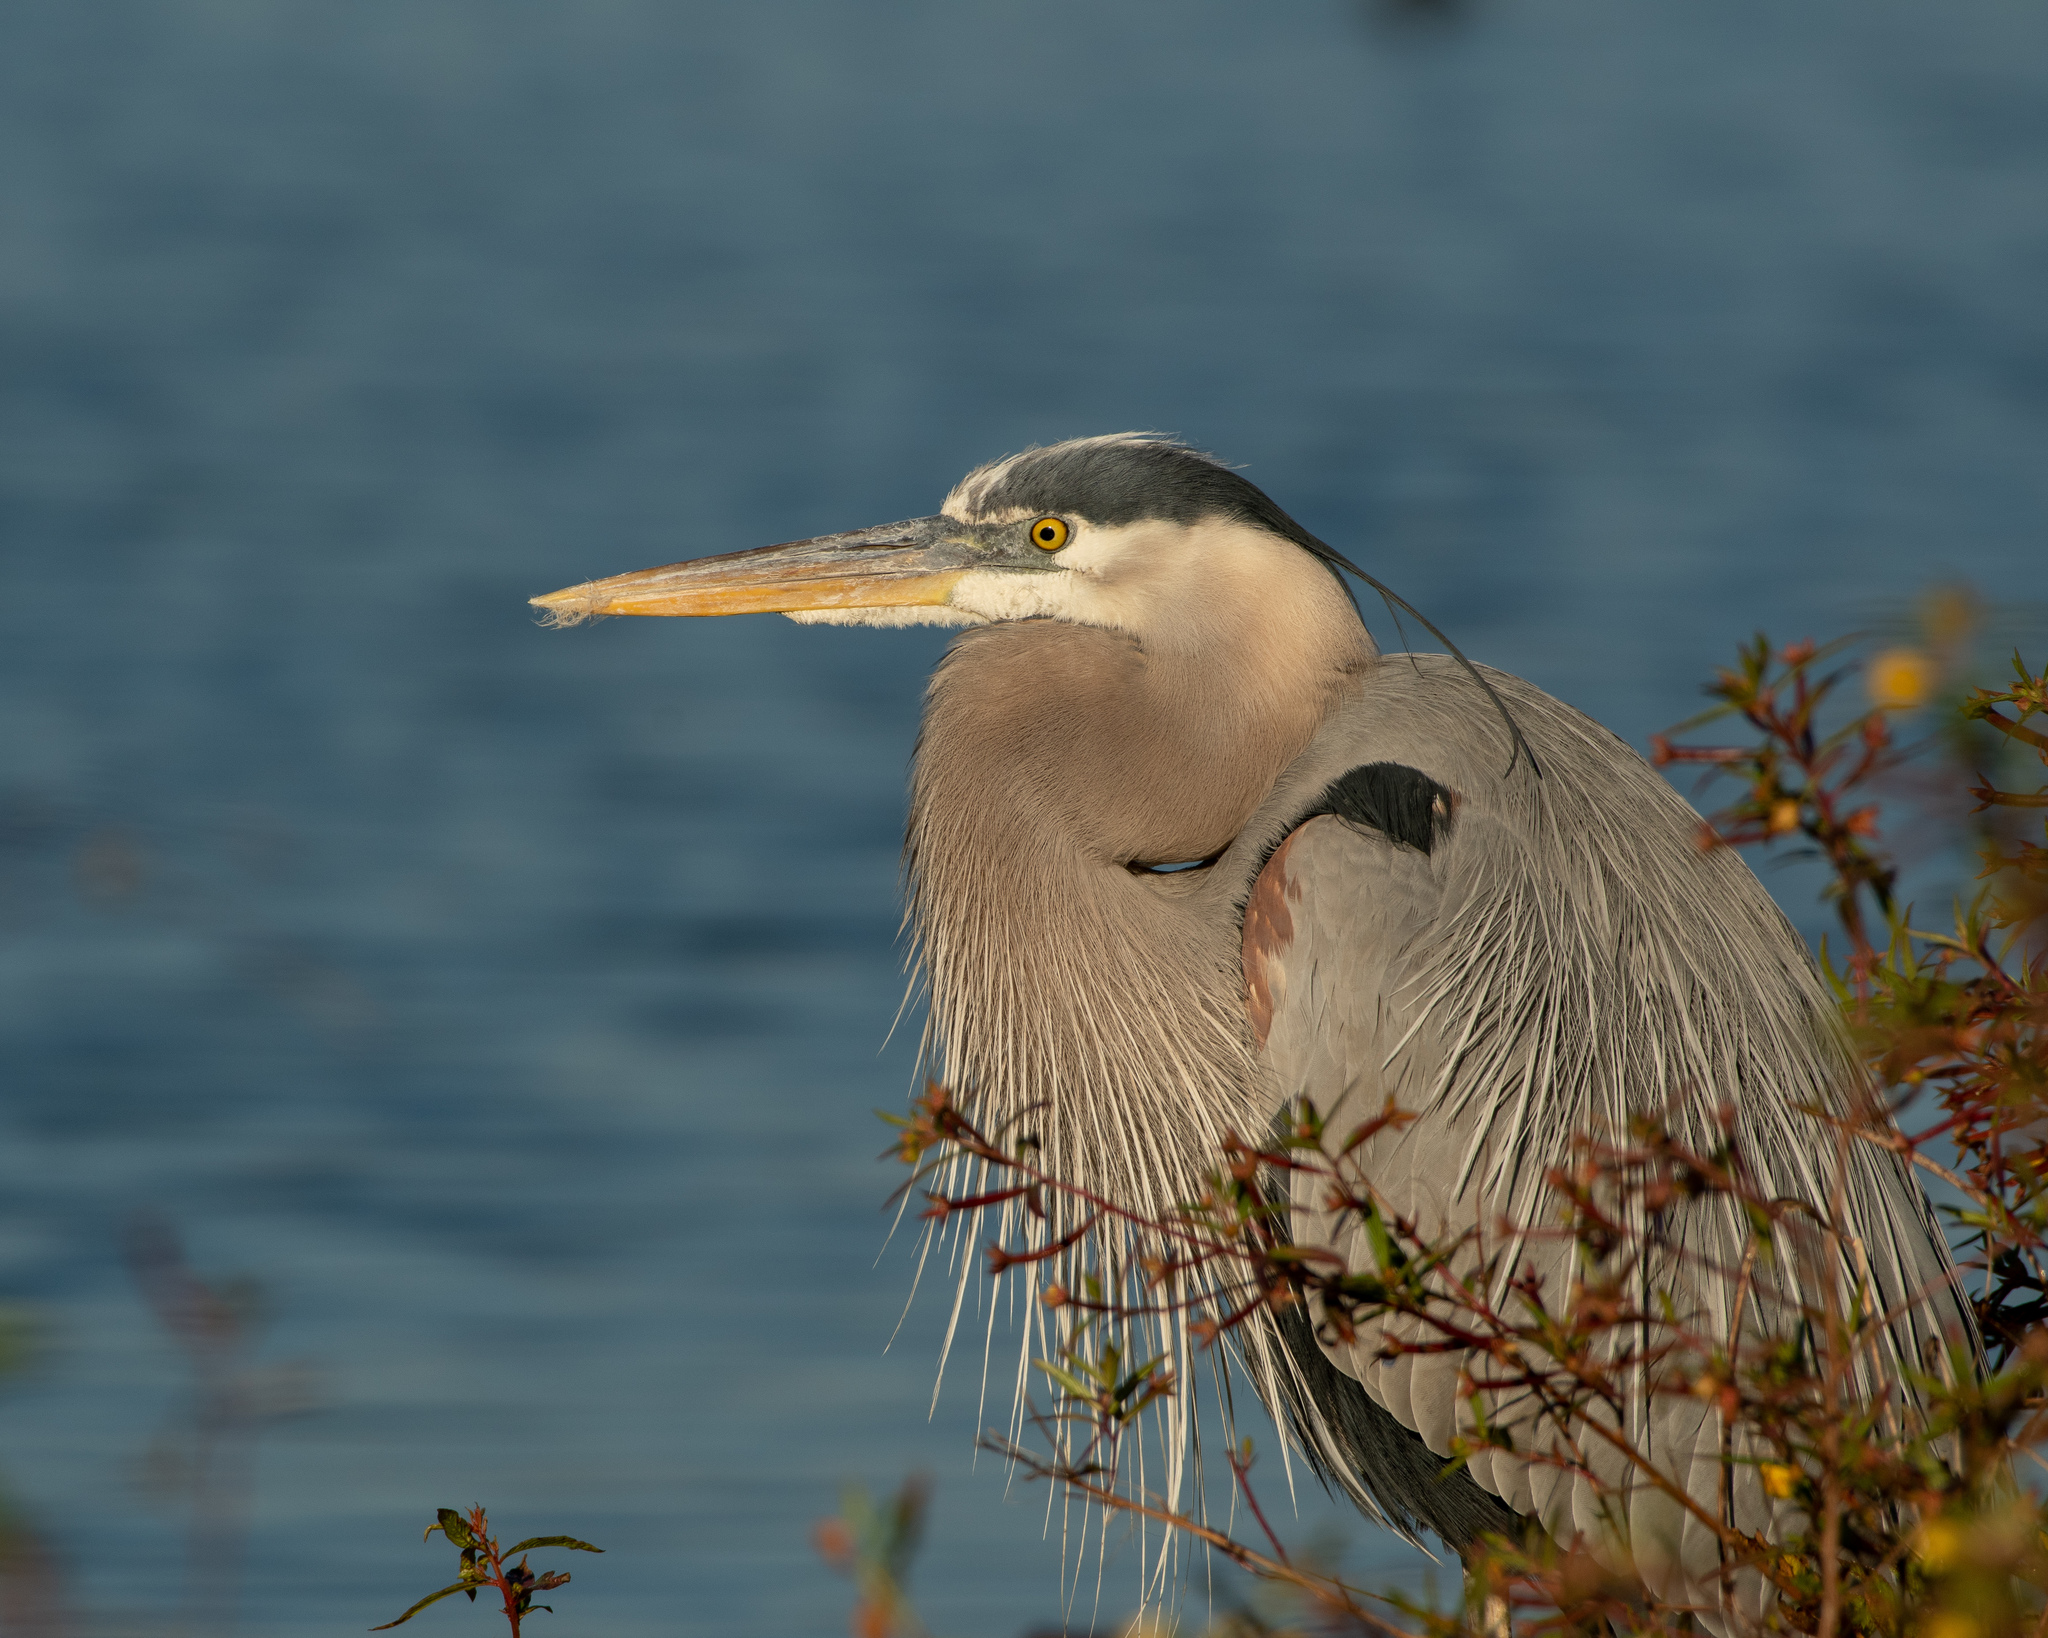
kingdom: Animalia
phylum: Chordata
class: Aves
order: Pelecaniformes
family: Ardeidae
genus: Ardea
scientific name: Ardea herodias
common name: Great blue heron
